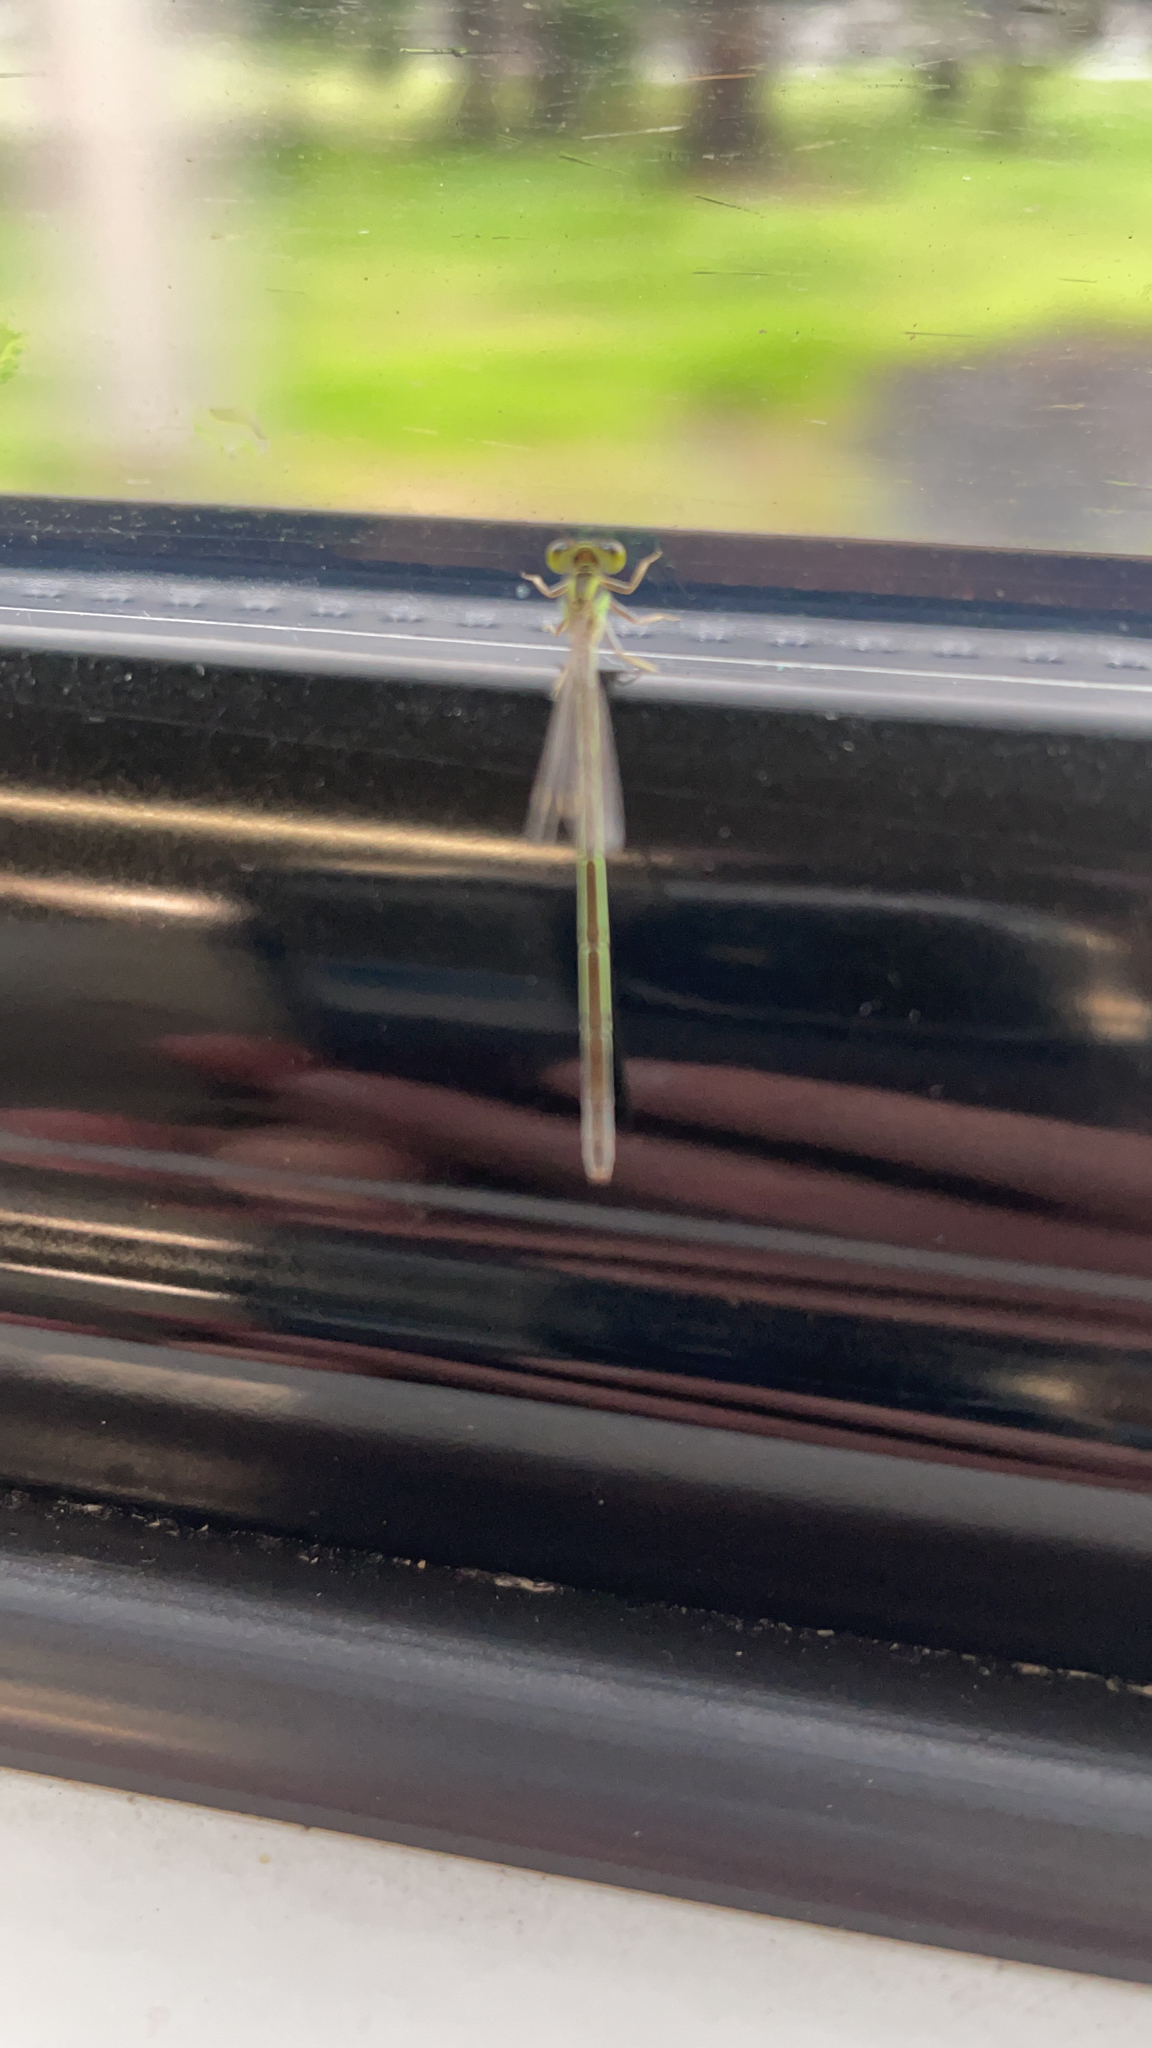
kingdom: Animalia
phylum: Arthropoda
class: Insecta
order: Odonata
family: Coenagrionidae
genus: Ischnura
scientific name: Ischnura aurora
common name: Gossamer damselfly
